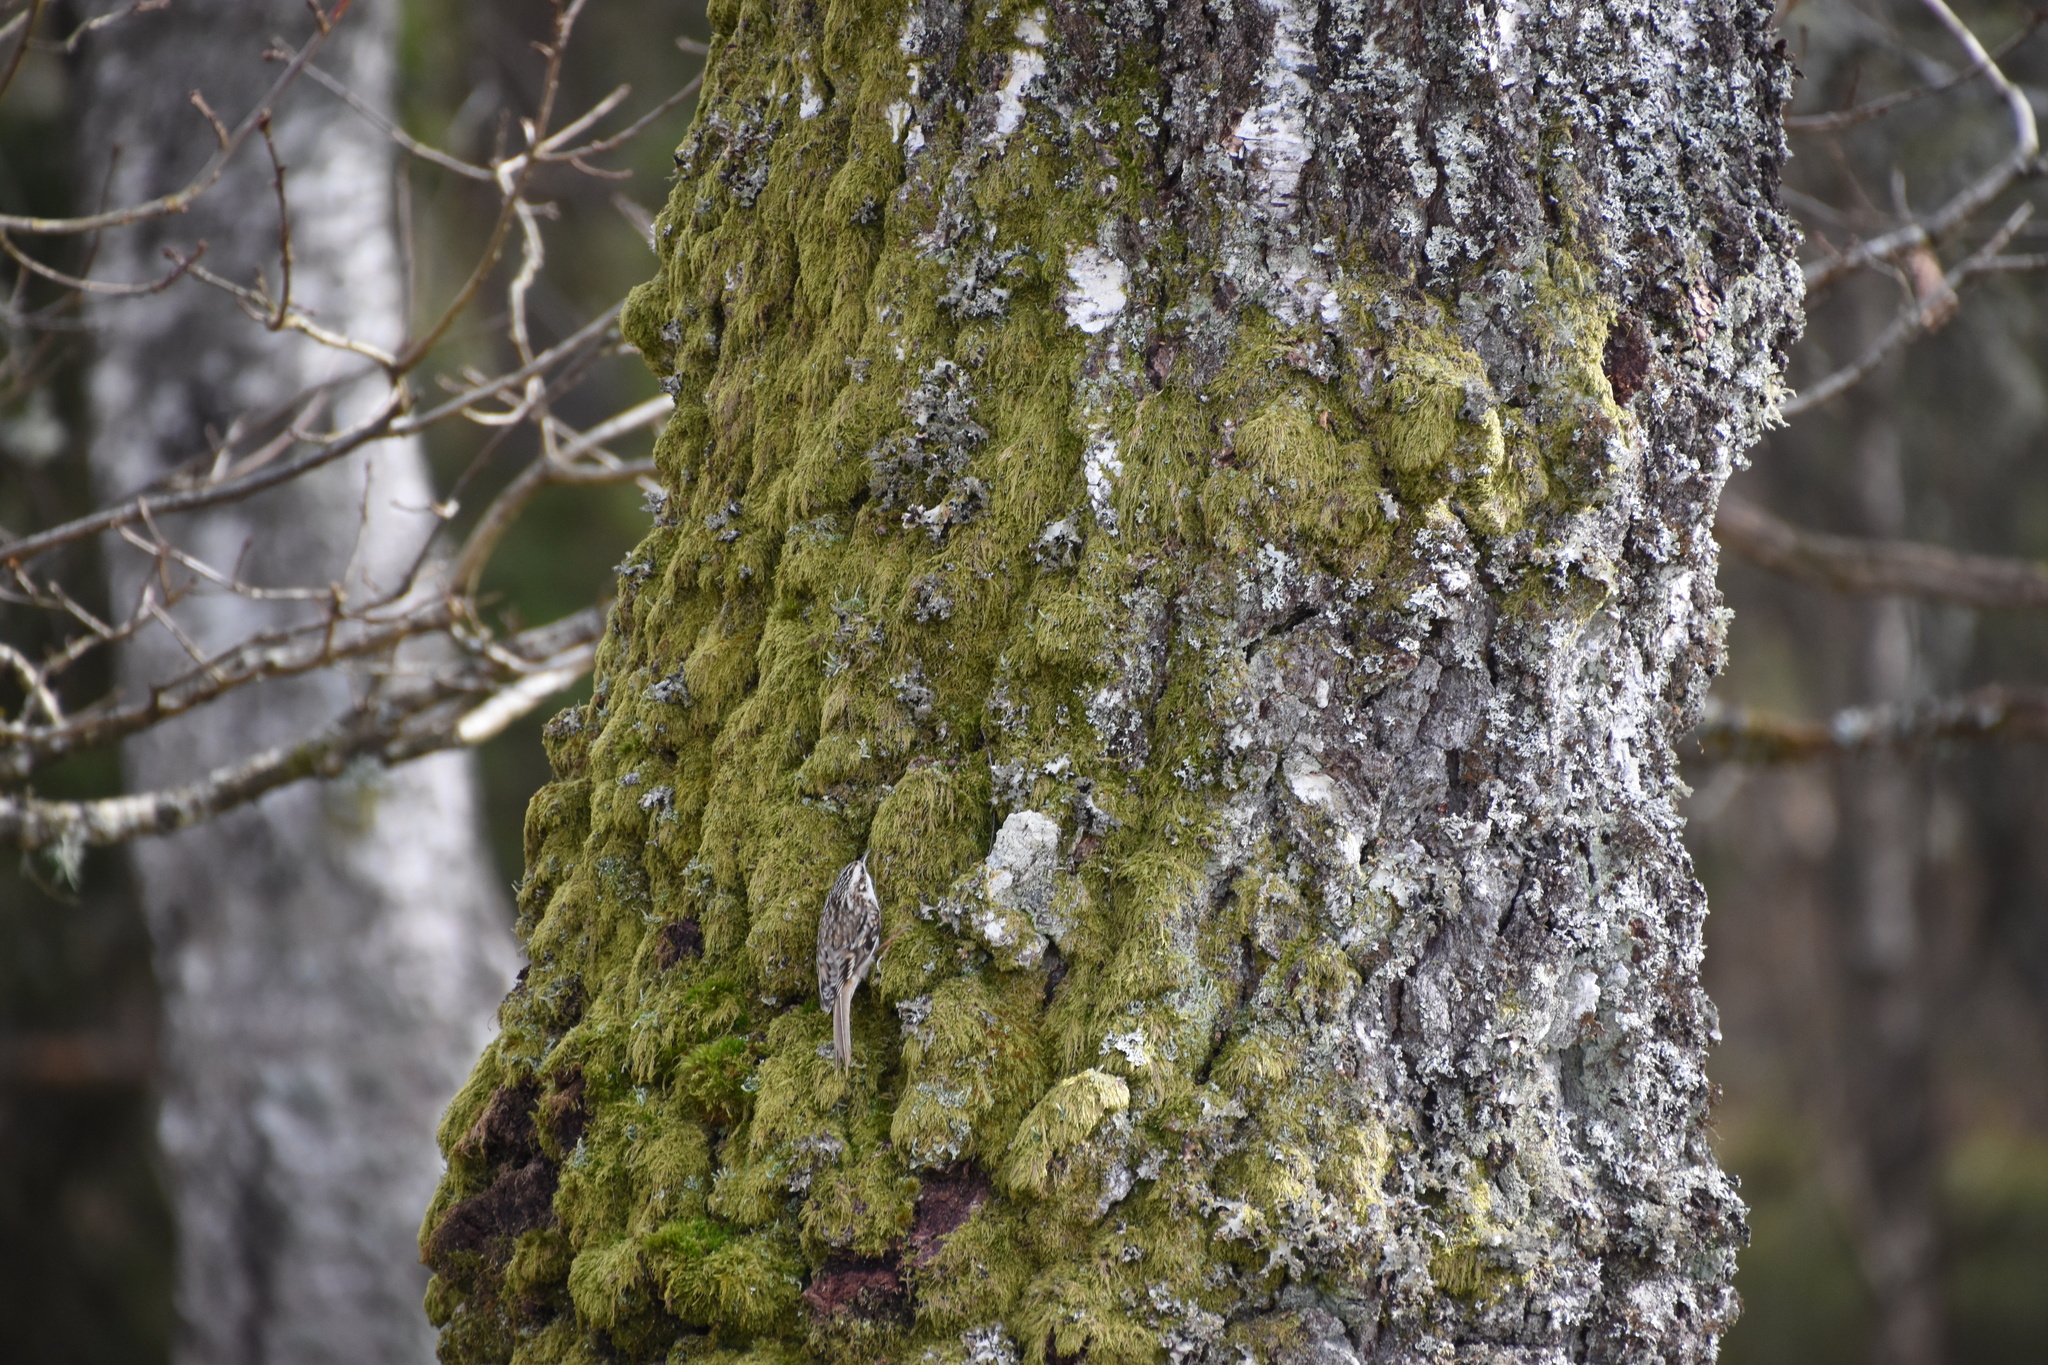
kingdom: Animalia
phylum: Chordata
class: Aves
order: Passeriformes
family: Certhiidae
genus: Certhia
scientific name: Certhia familiaris
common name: Eurasian treecreeper
